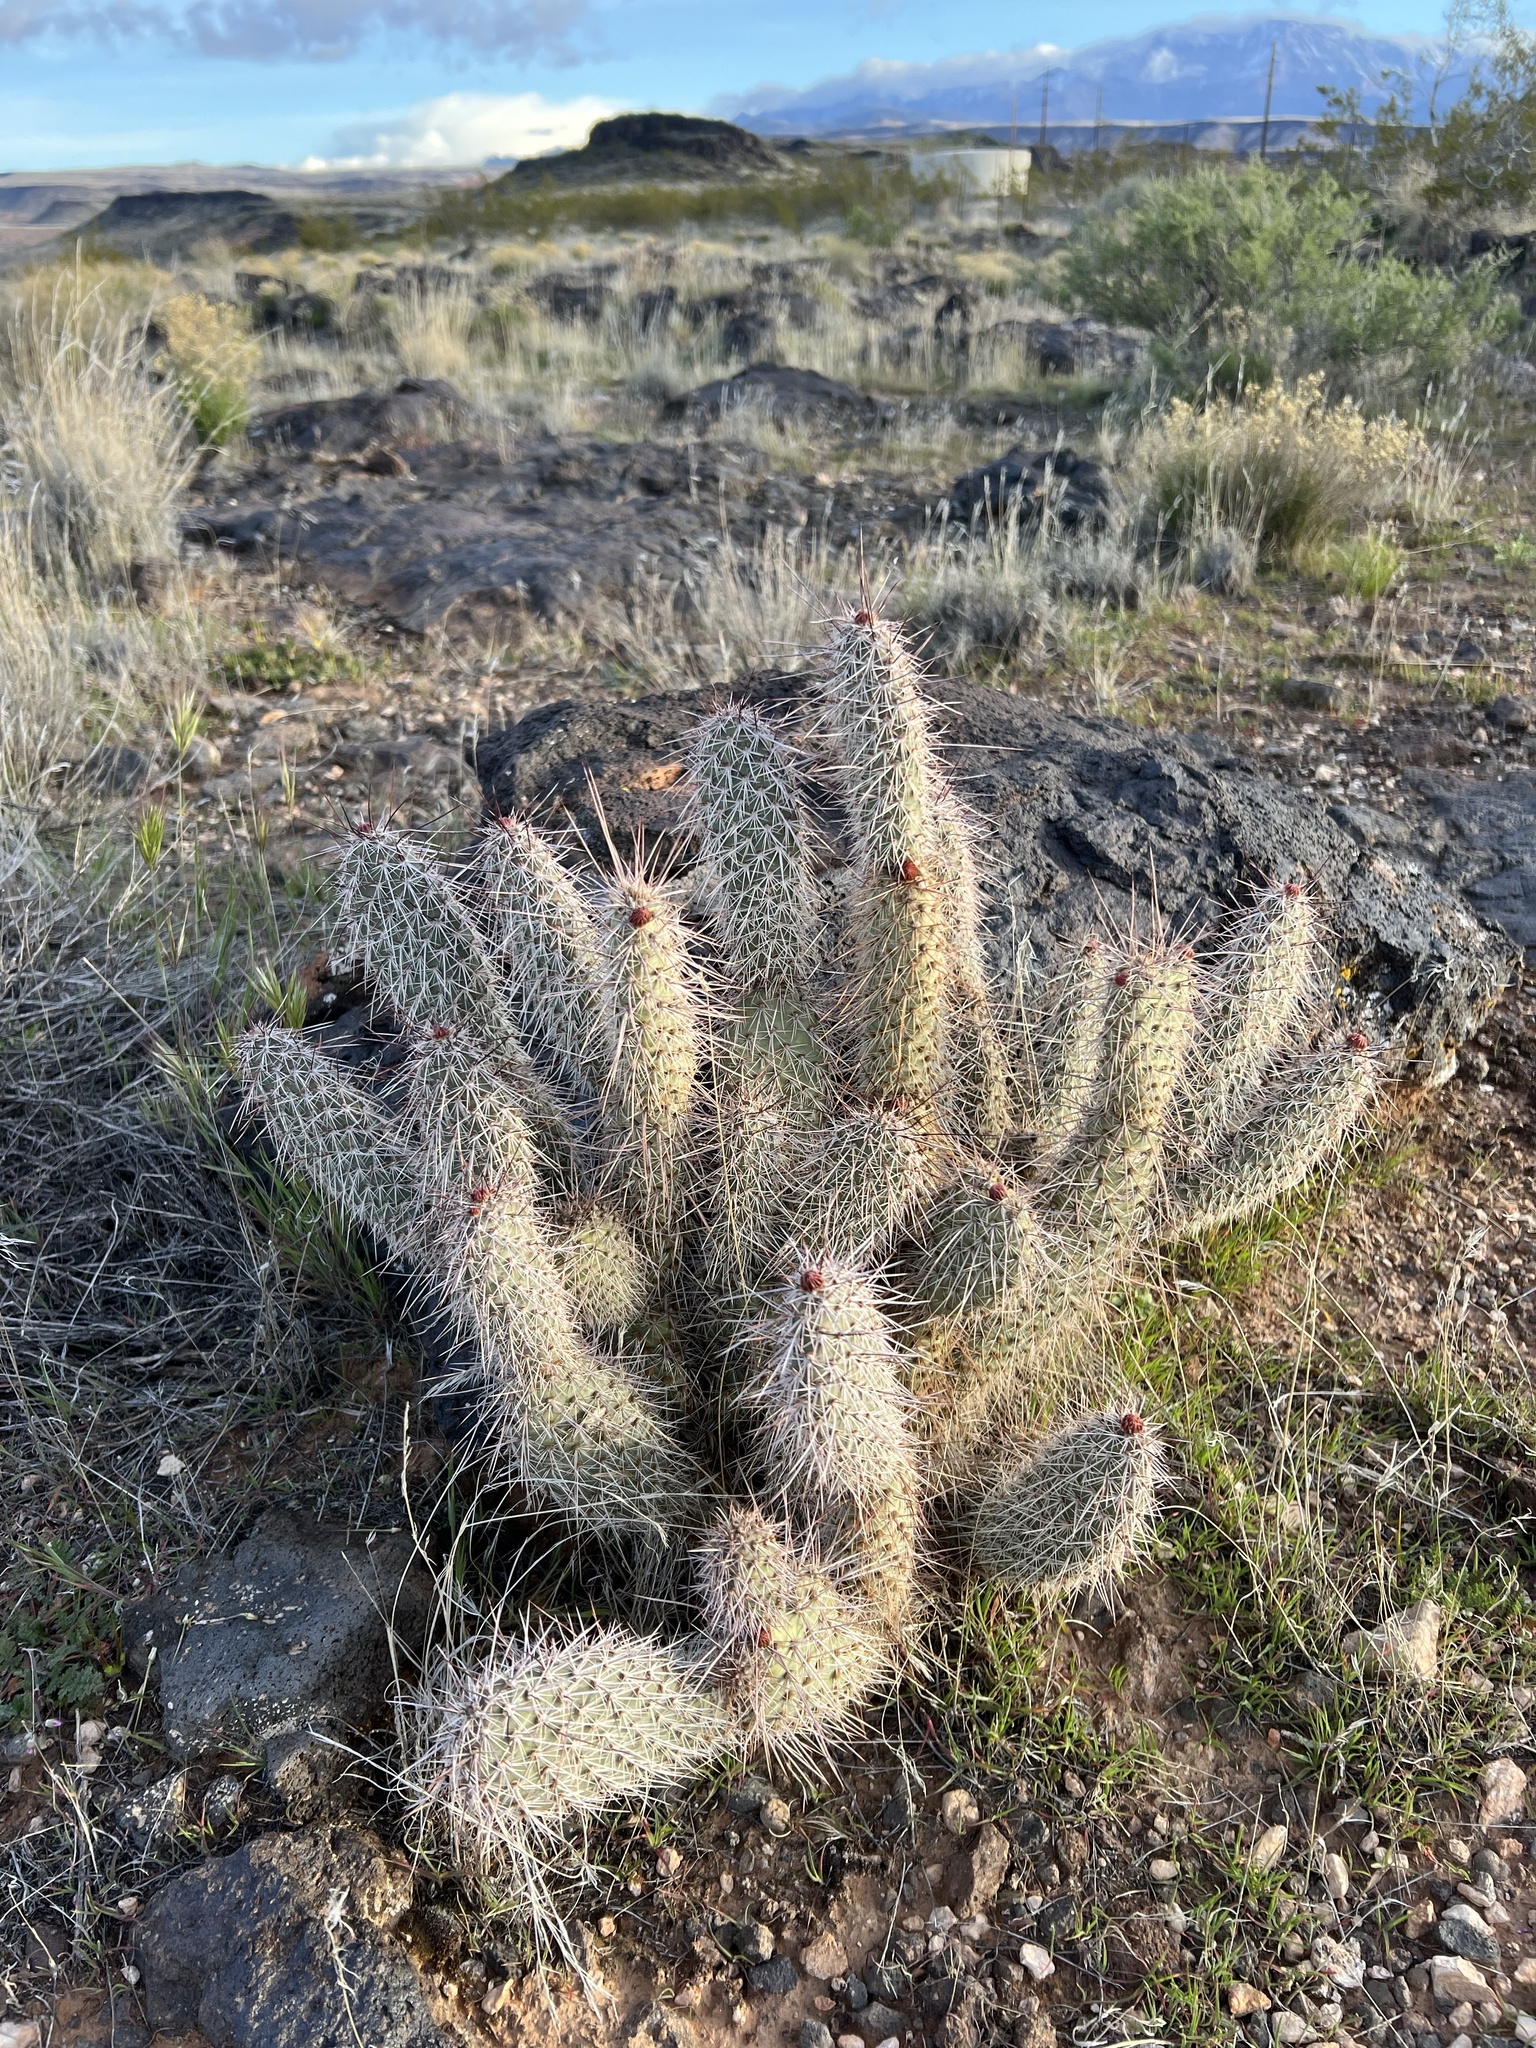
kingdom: Plantae
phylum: Tracheophyta
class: Magnoliopsida
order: Caryophyllales
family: Cactaceae
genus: Opuntia
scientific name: Opuntia polyacantha
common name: Plains prickly-pear
